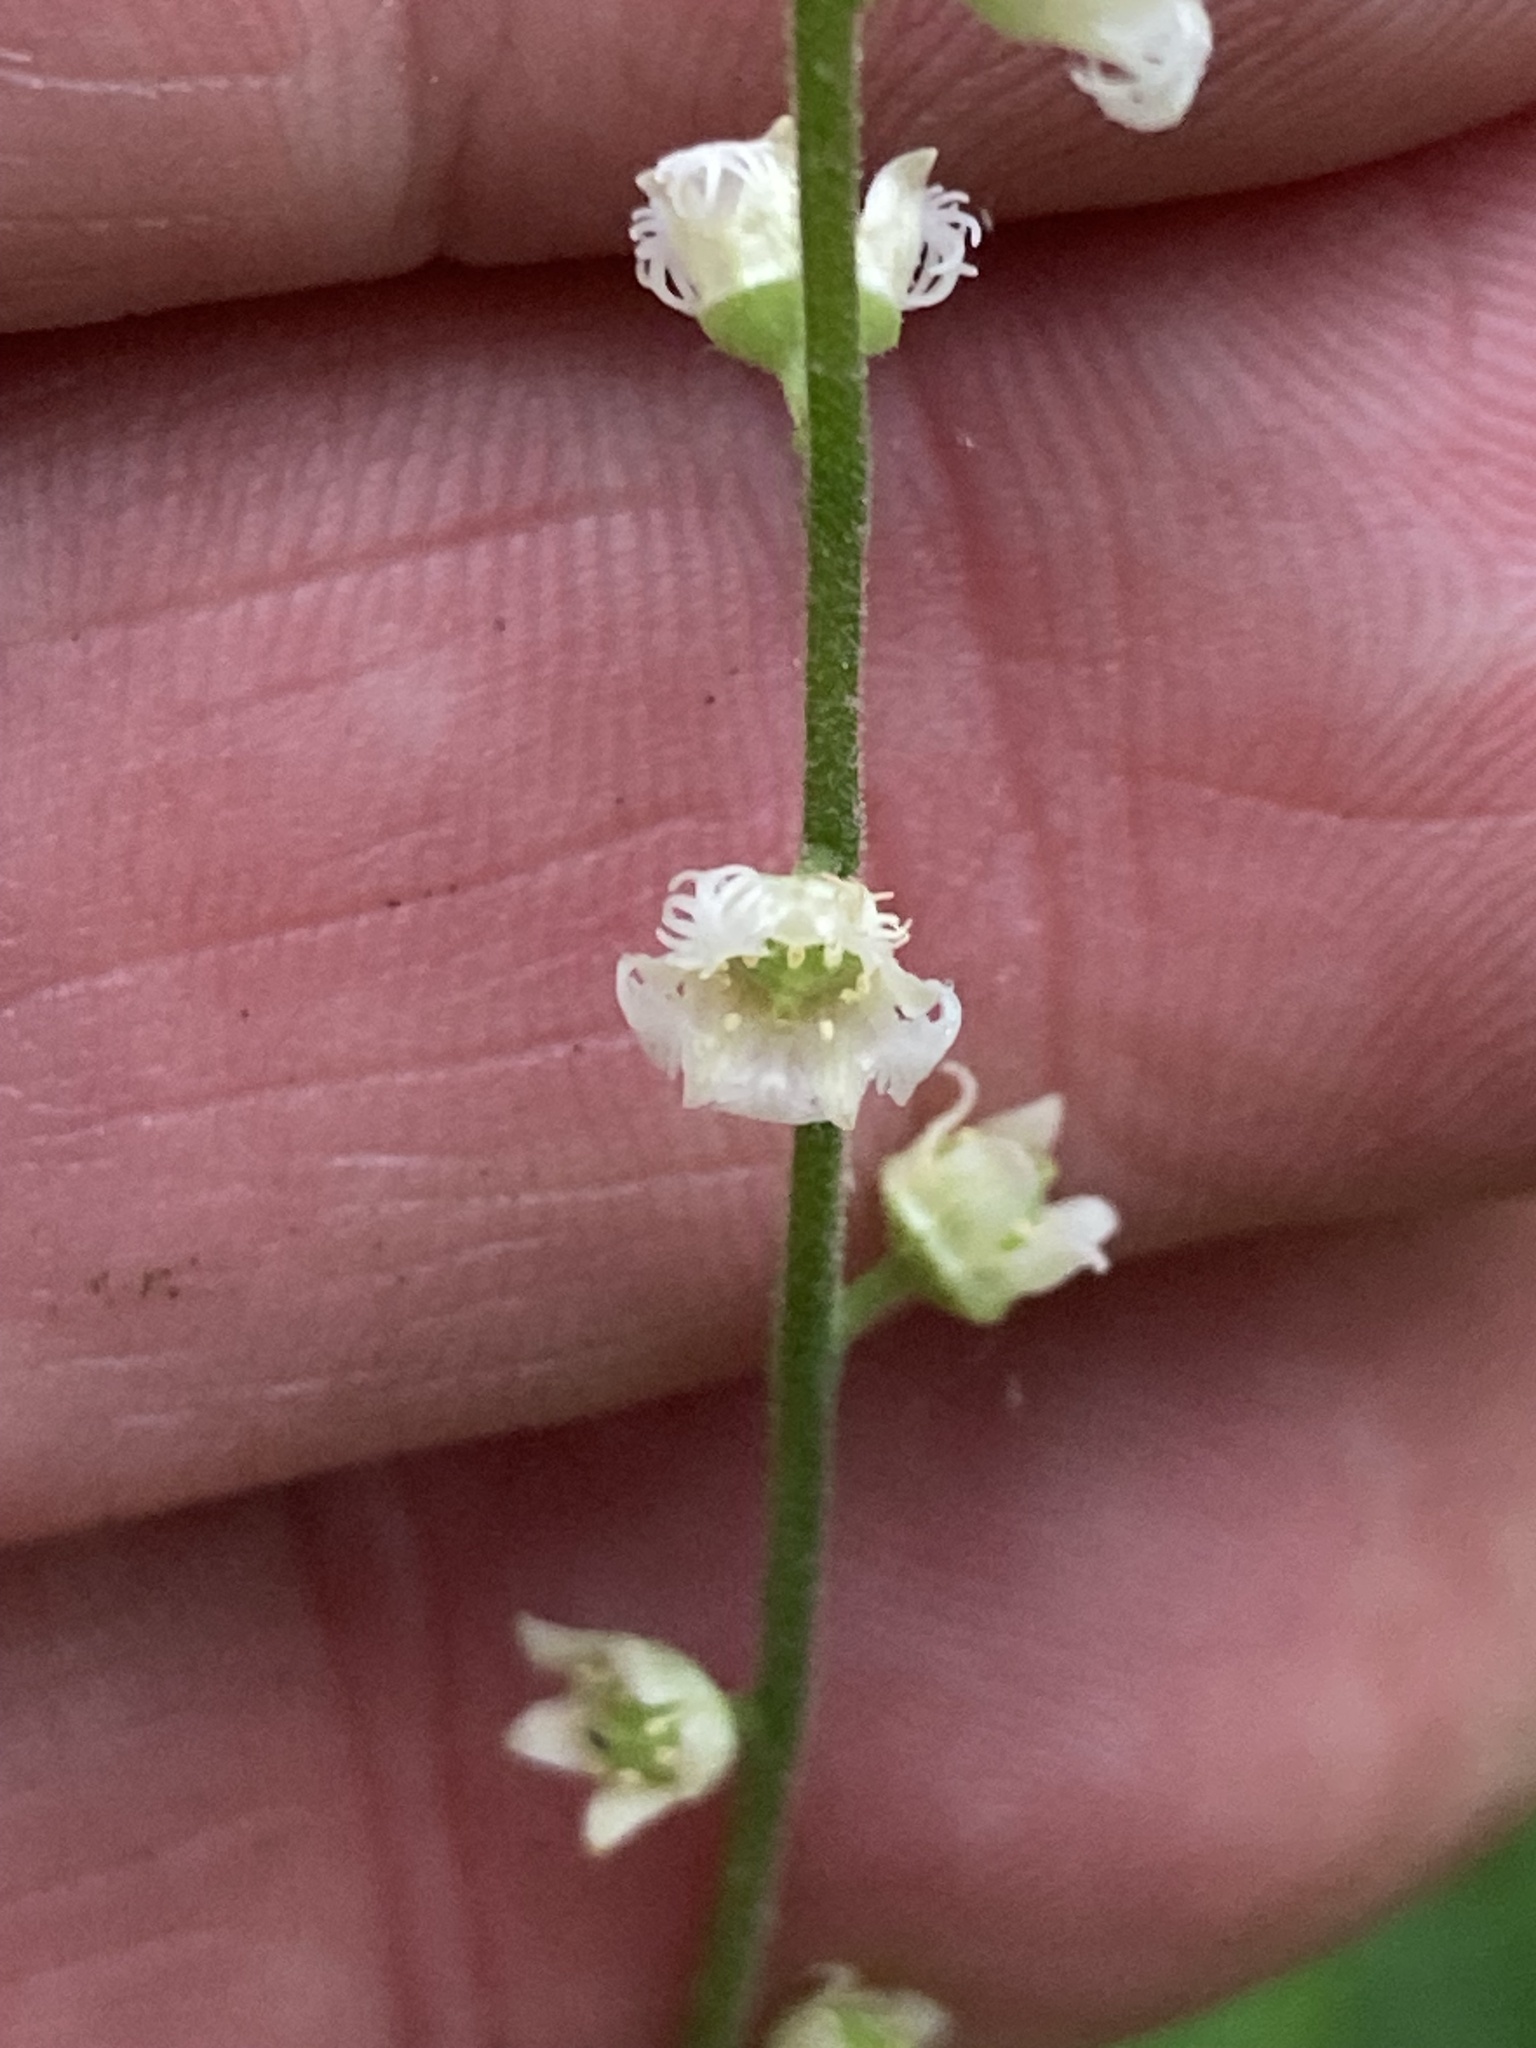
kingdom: Plantae
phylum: Tracheophyta
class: Magnoliopsida
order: Saxifragales
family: Saxifragaceae
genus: Mitella
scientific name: Mitella diphylla
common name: Coolwort
